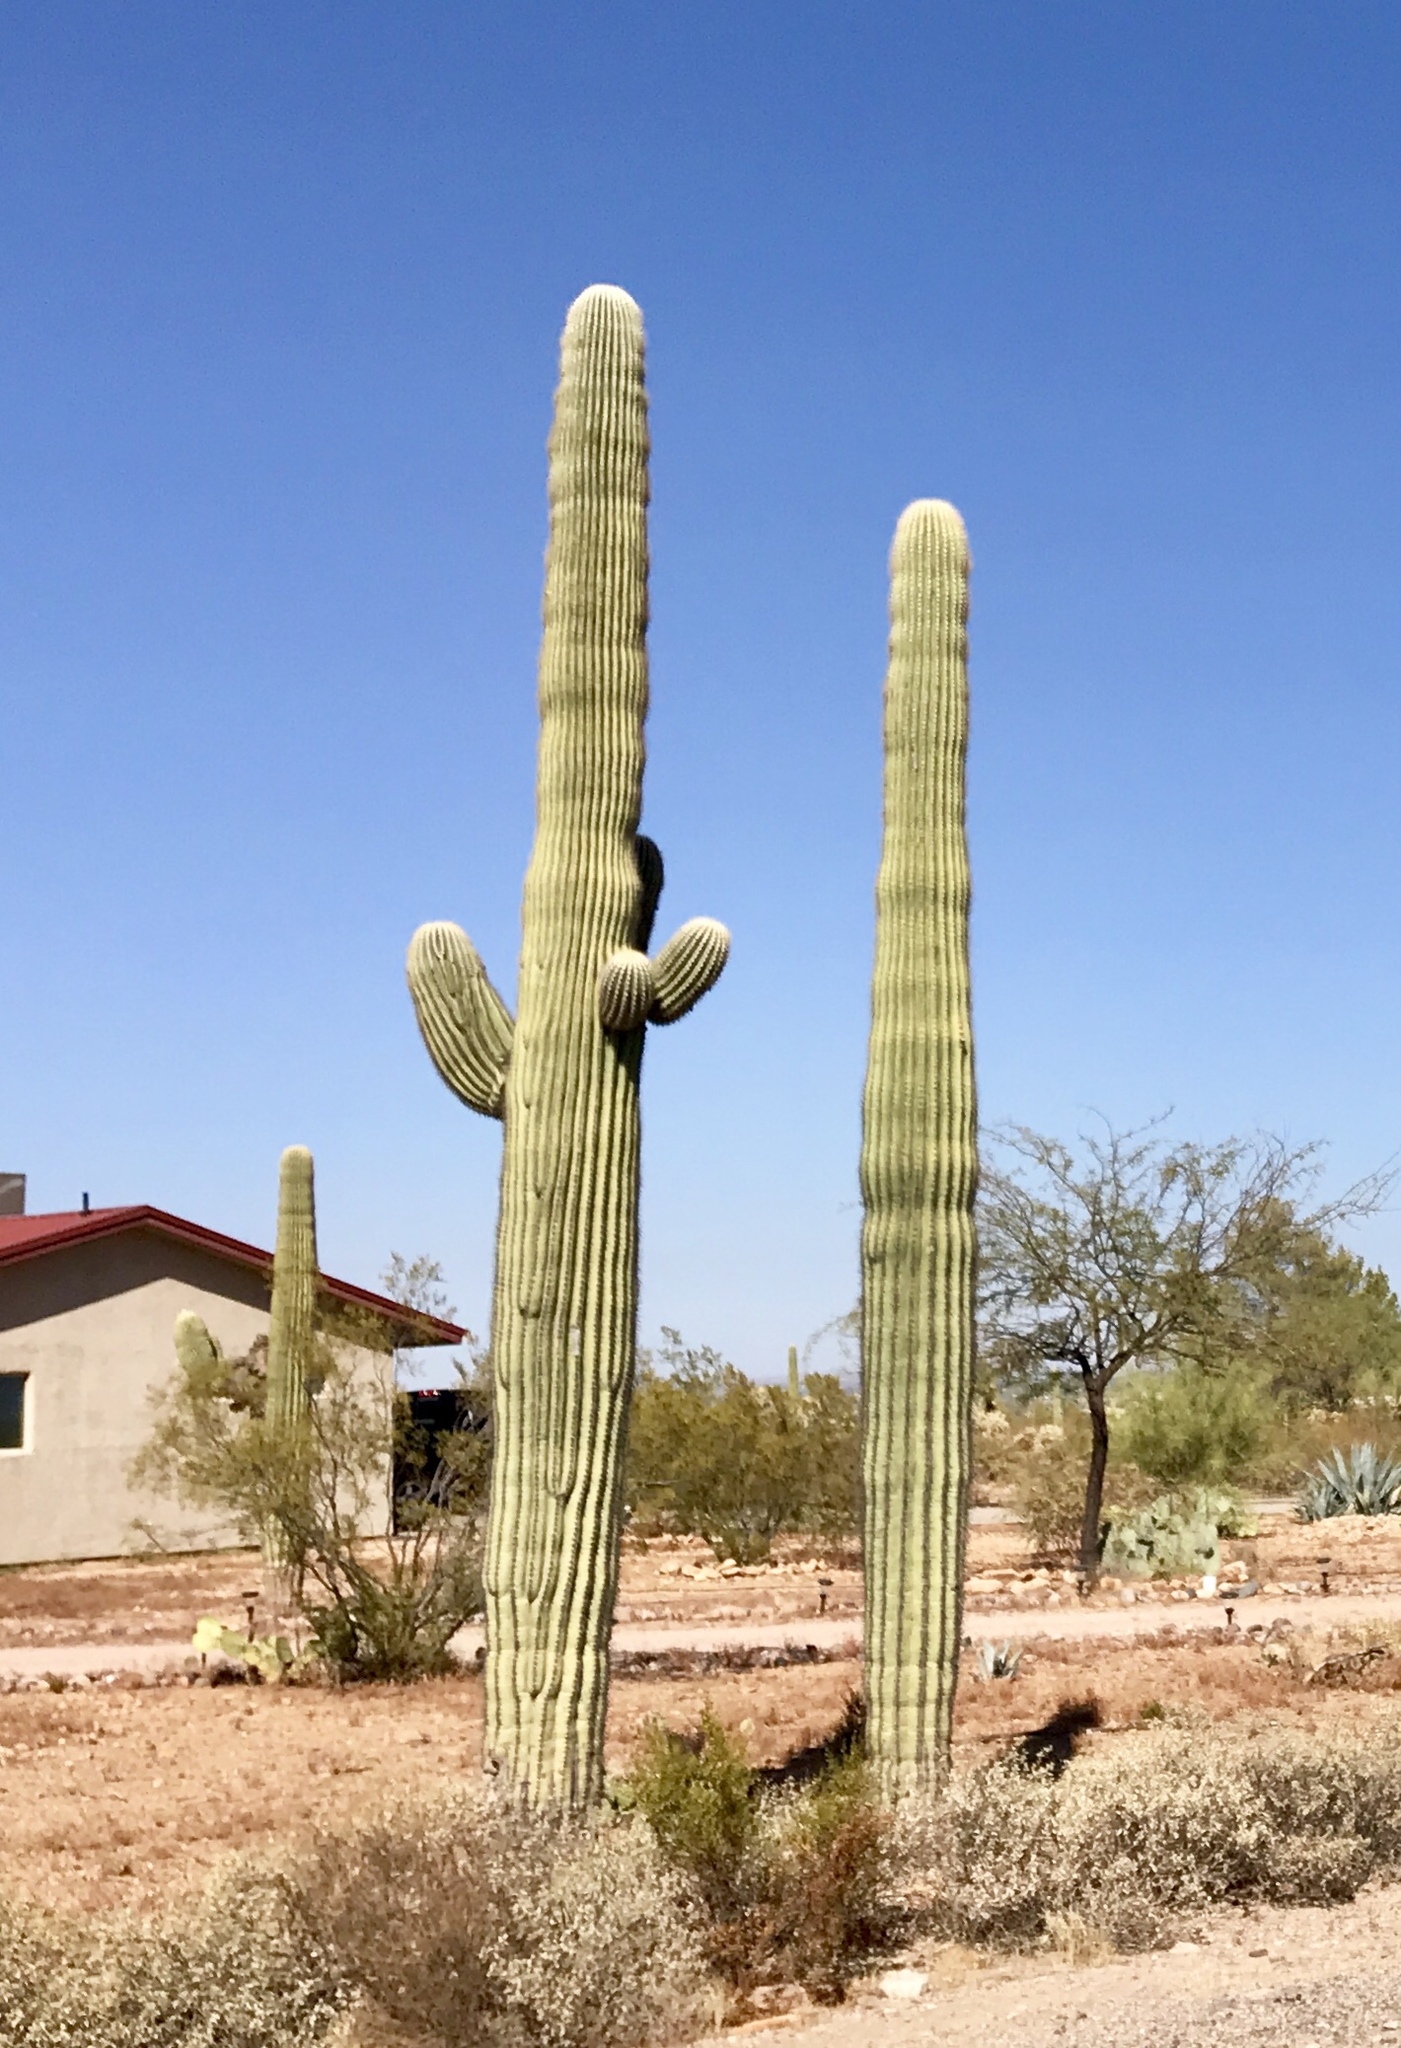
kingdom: Plantae
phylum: Tracheophyta
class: Magnoliopsida
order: Caryophyllales
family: Cactaceae
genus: Carnegiea
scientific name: Carnegiea gigantea
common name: Saguaro
